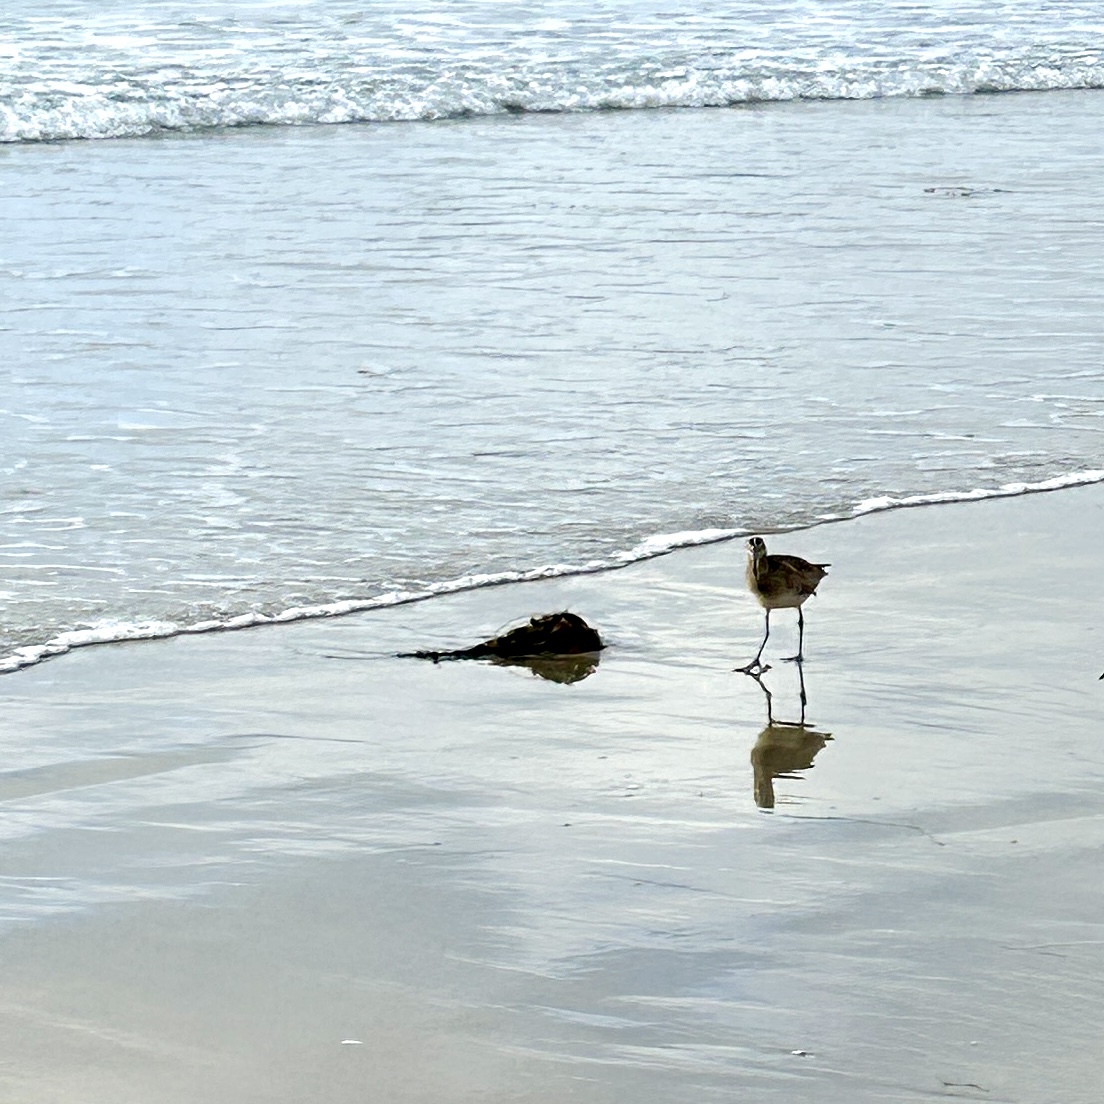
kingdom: Animalia
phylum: Chordata
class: Aves
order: Charadriiformes
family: Scolopacidae
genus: Numenius
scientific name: Numenius phaeopus
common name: Whimbrel
